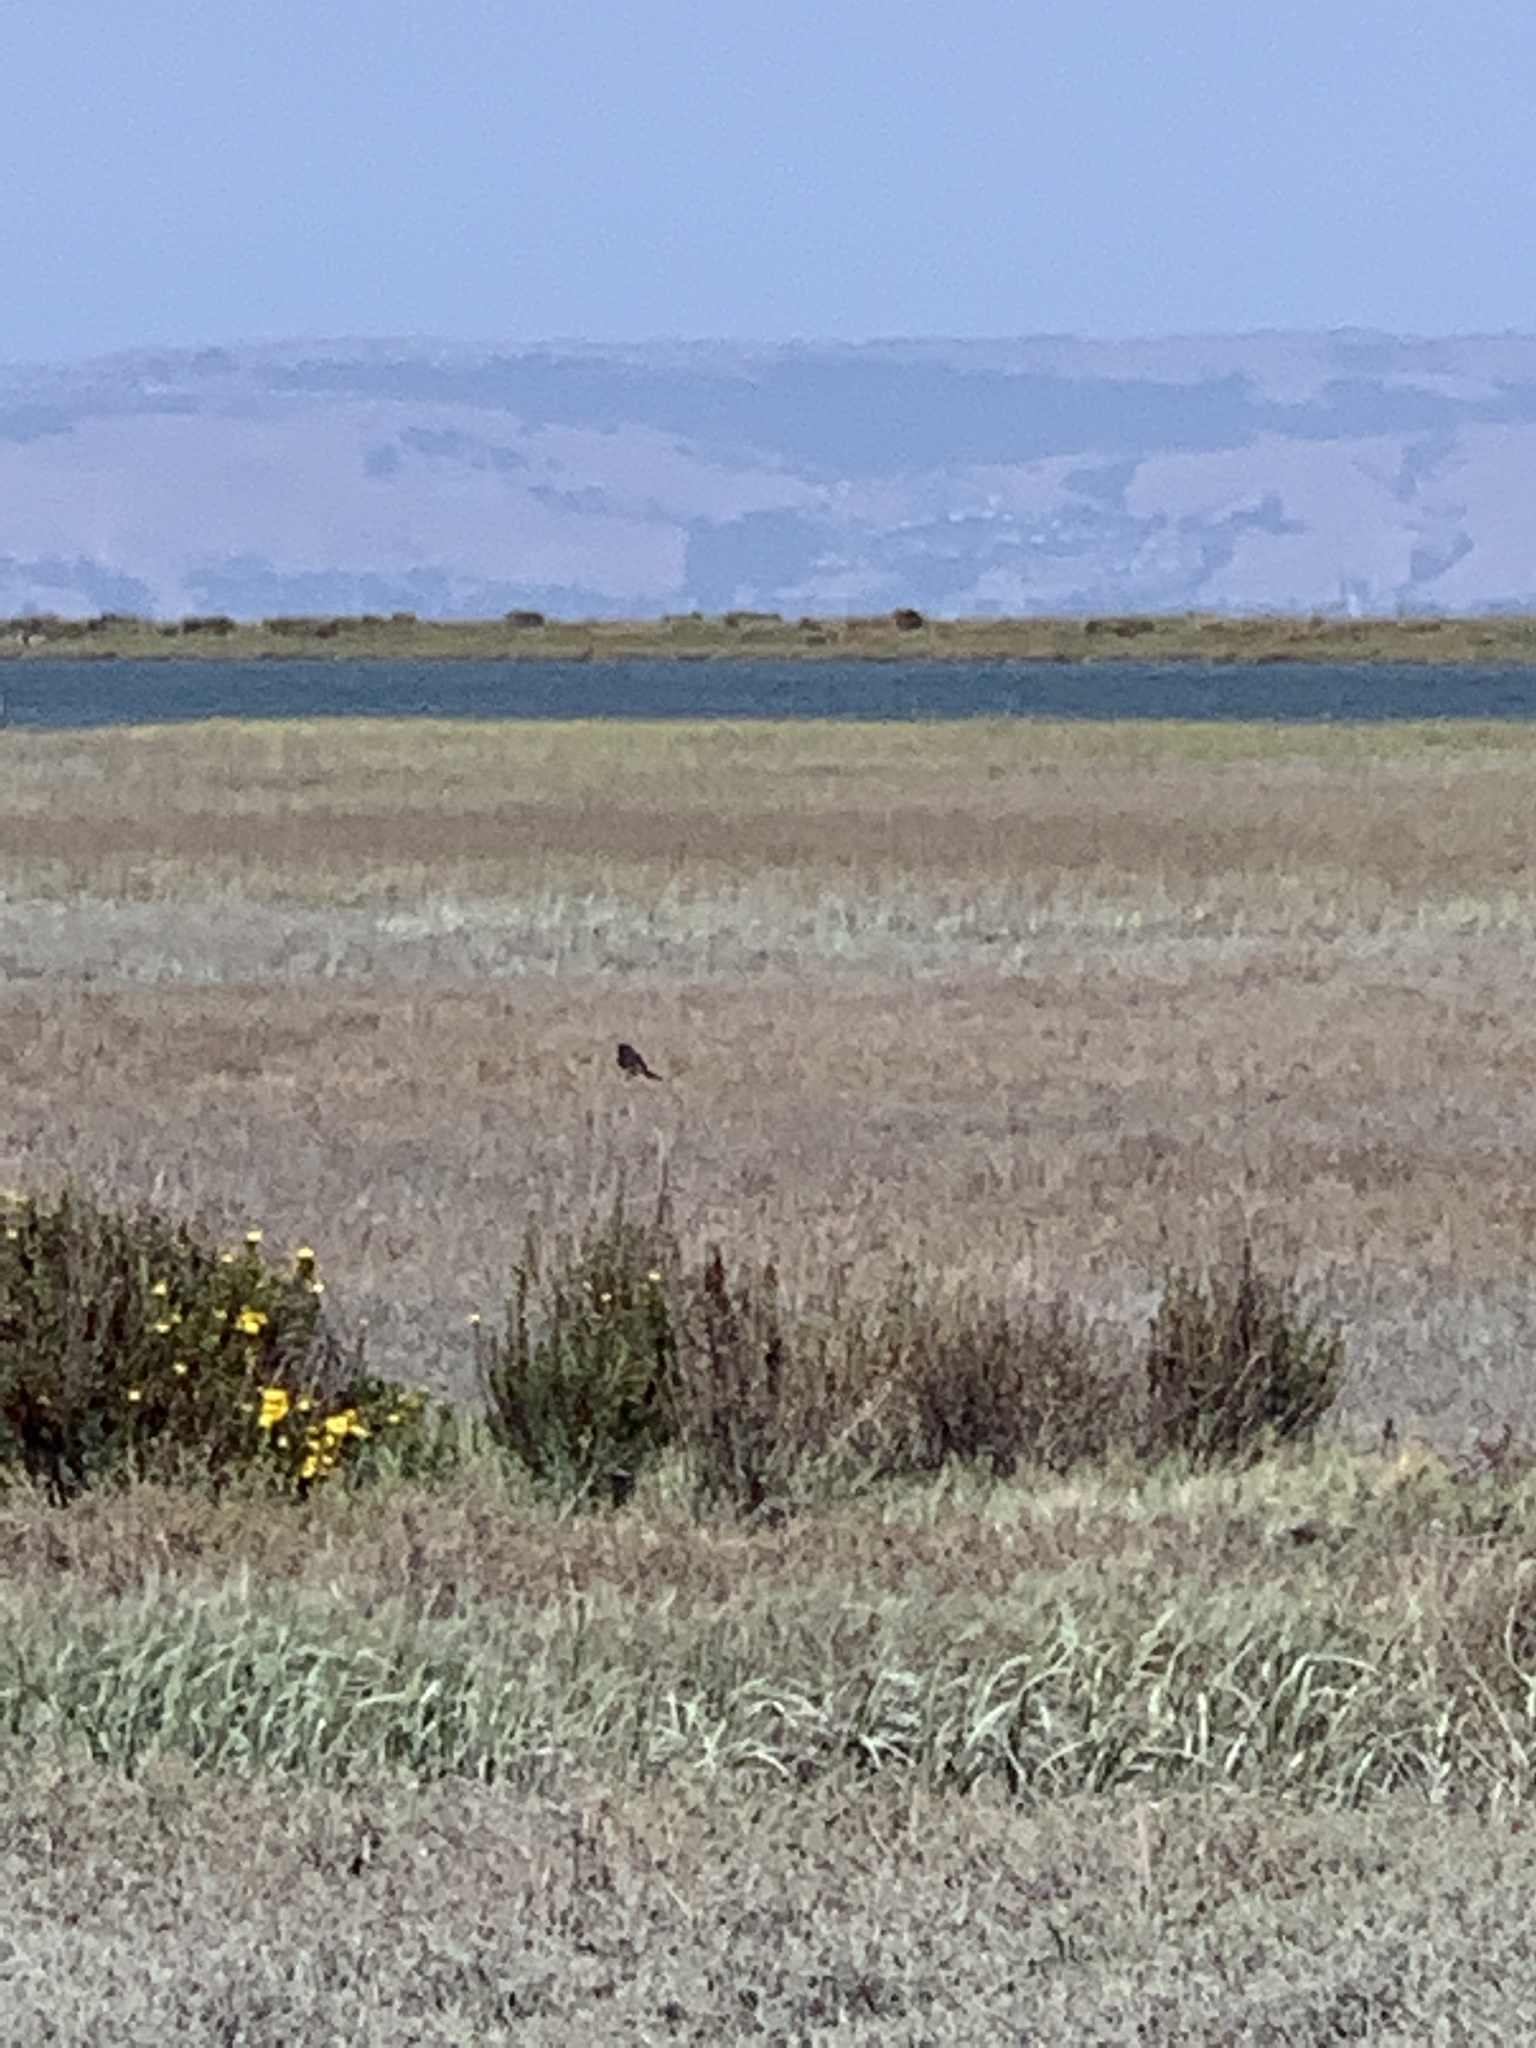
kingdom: Animalia
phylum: Chordata
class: Aves
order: Passeriformes
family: Tyrannidae
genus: Sayornis
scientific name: Sayornis nigricans
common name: Black phoebe
